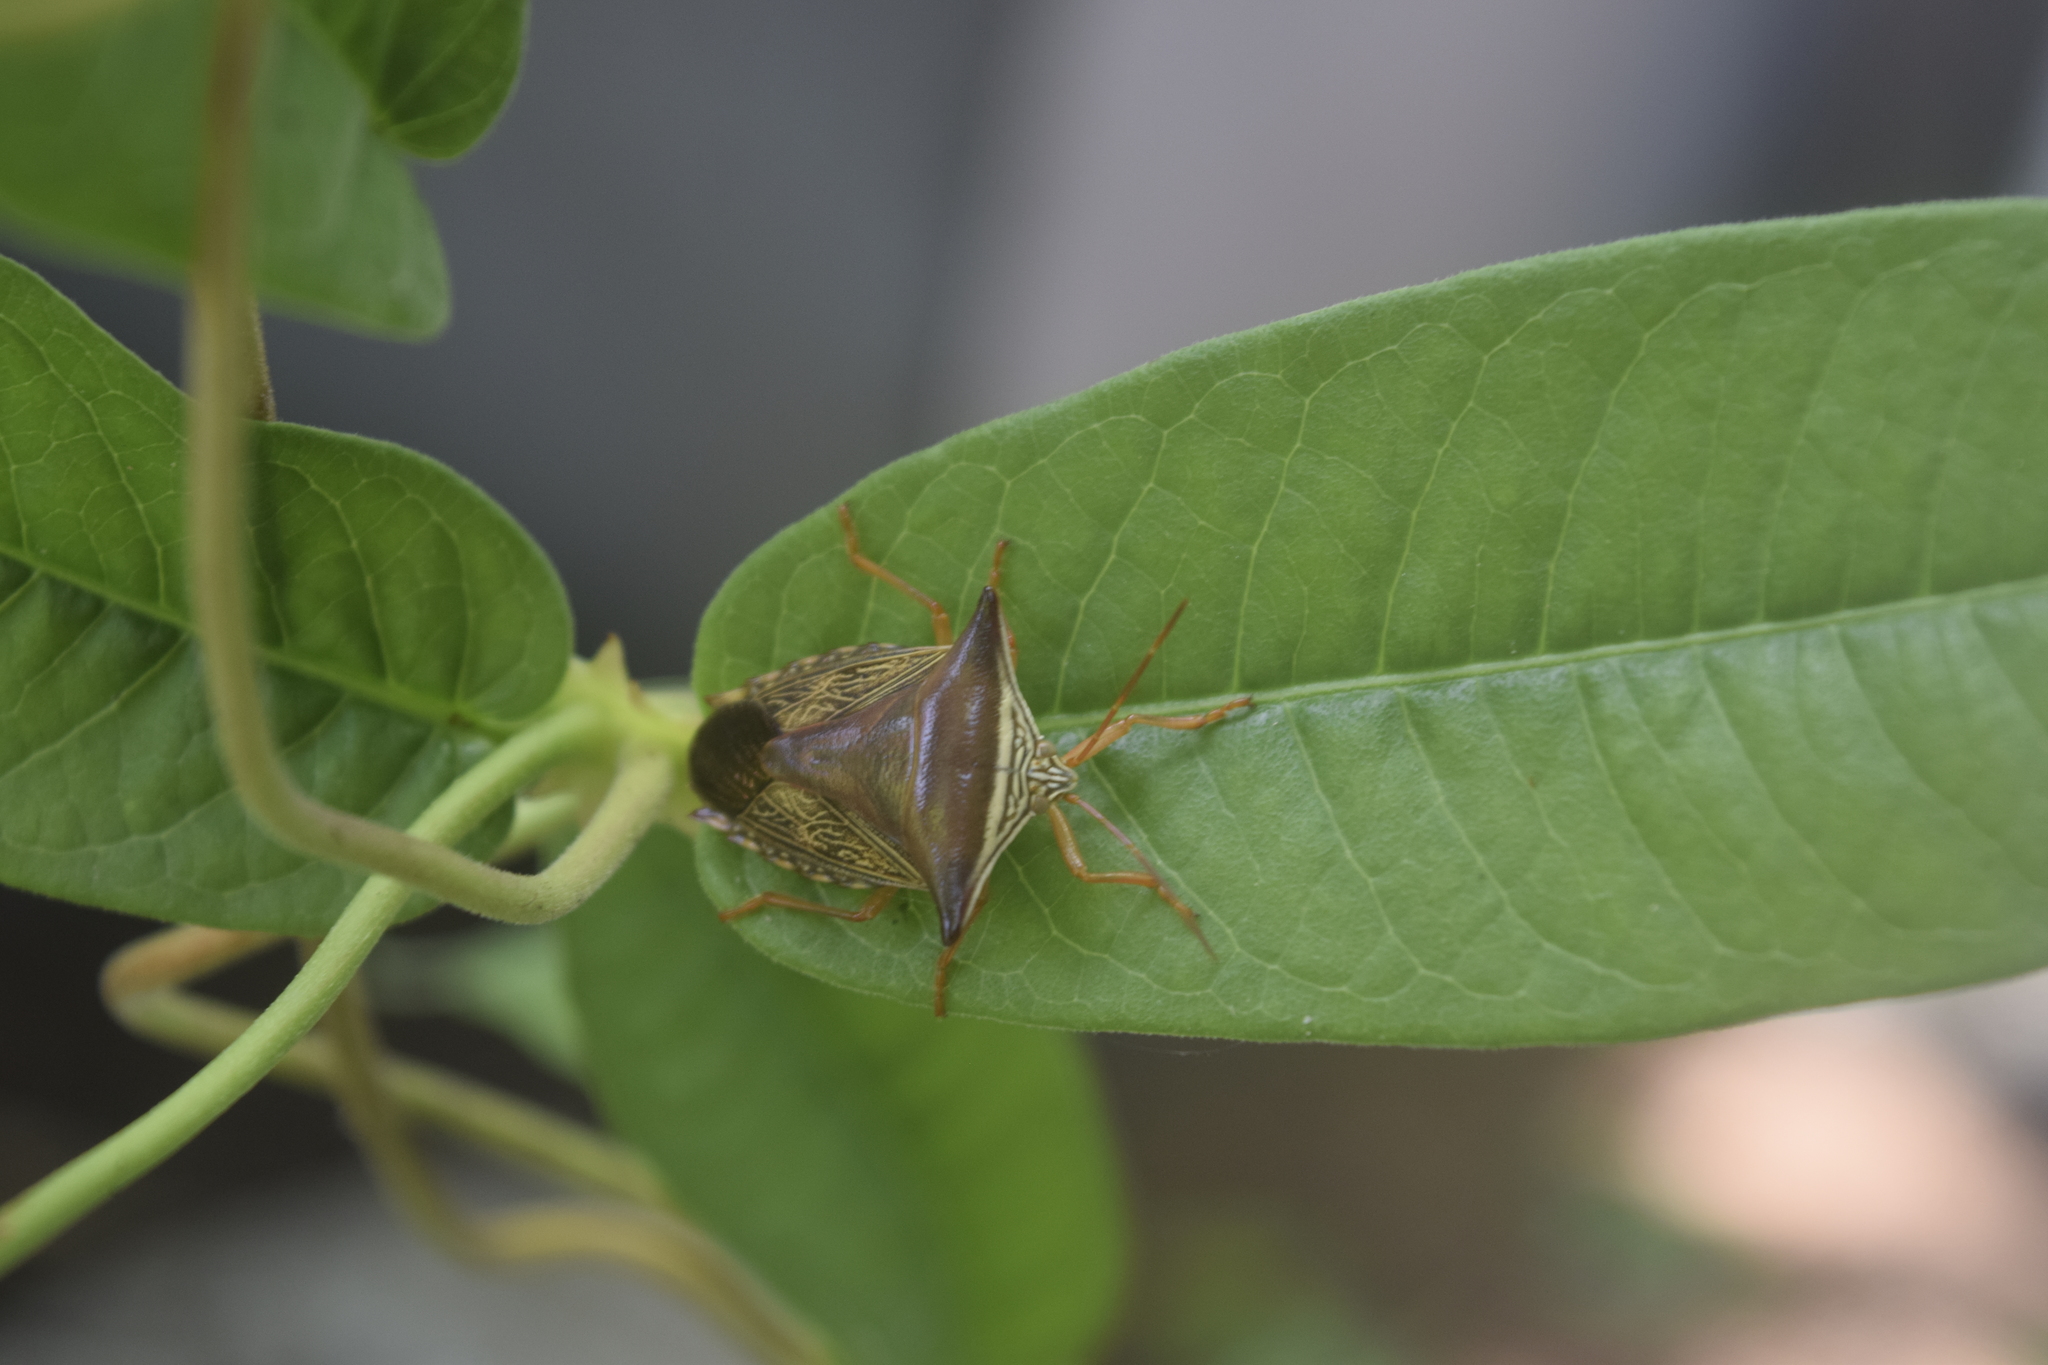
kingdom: Animalia
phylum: Arthropoda
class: Insecta
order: Hemiptera
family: Pentatomidae
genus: Edessa
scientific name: Edessa reticulata
